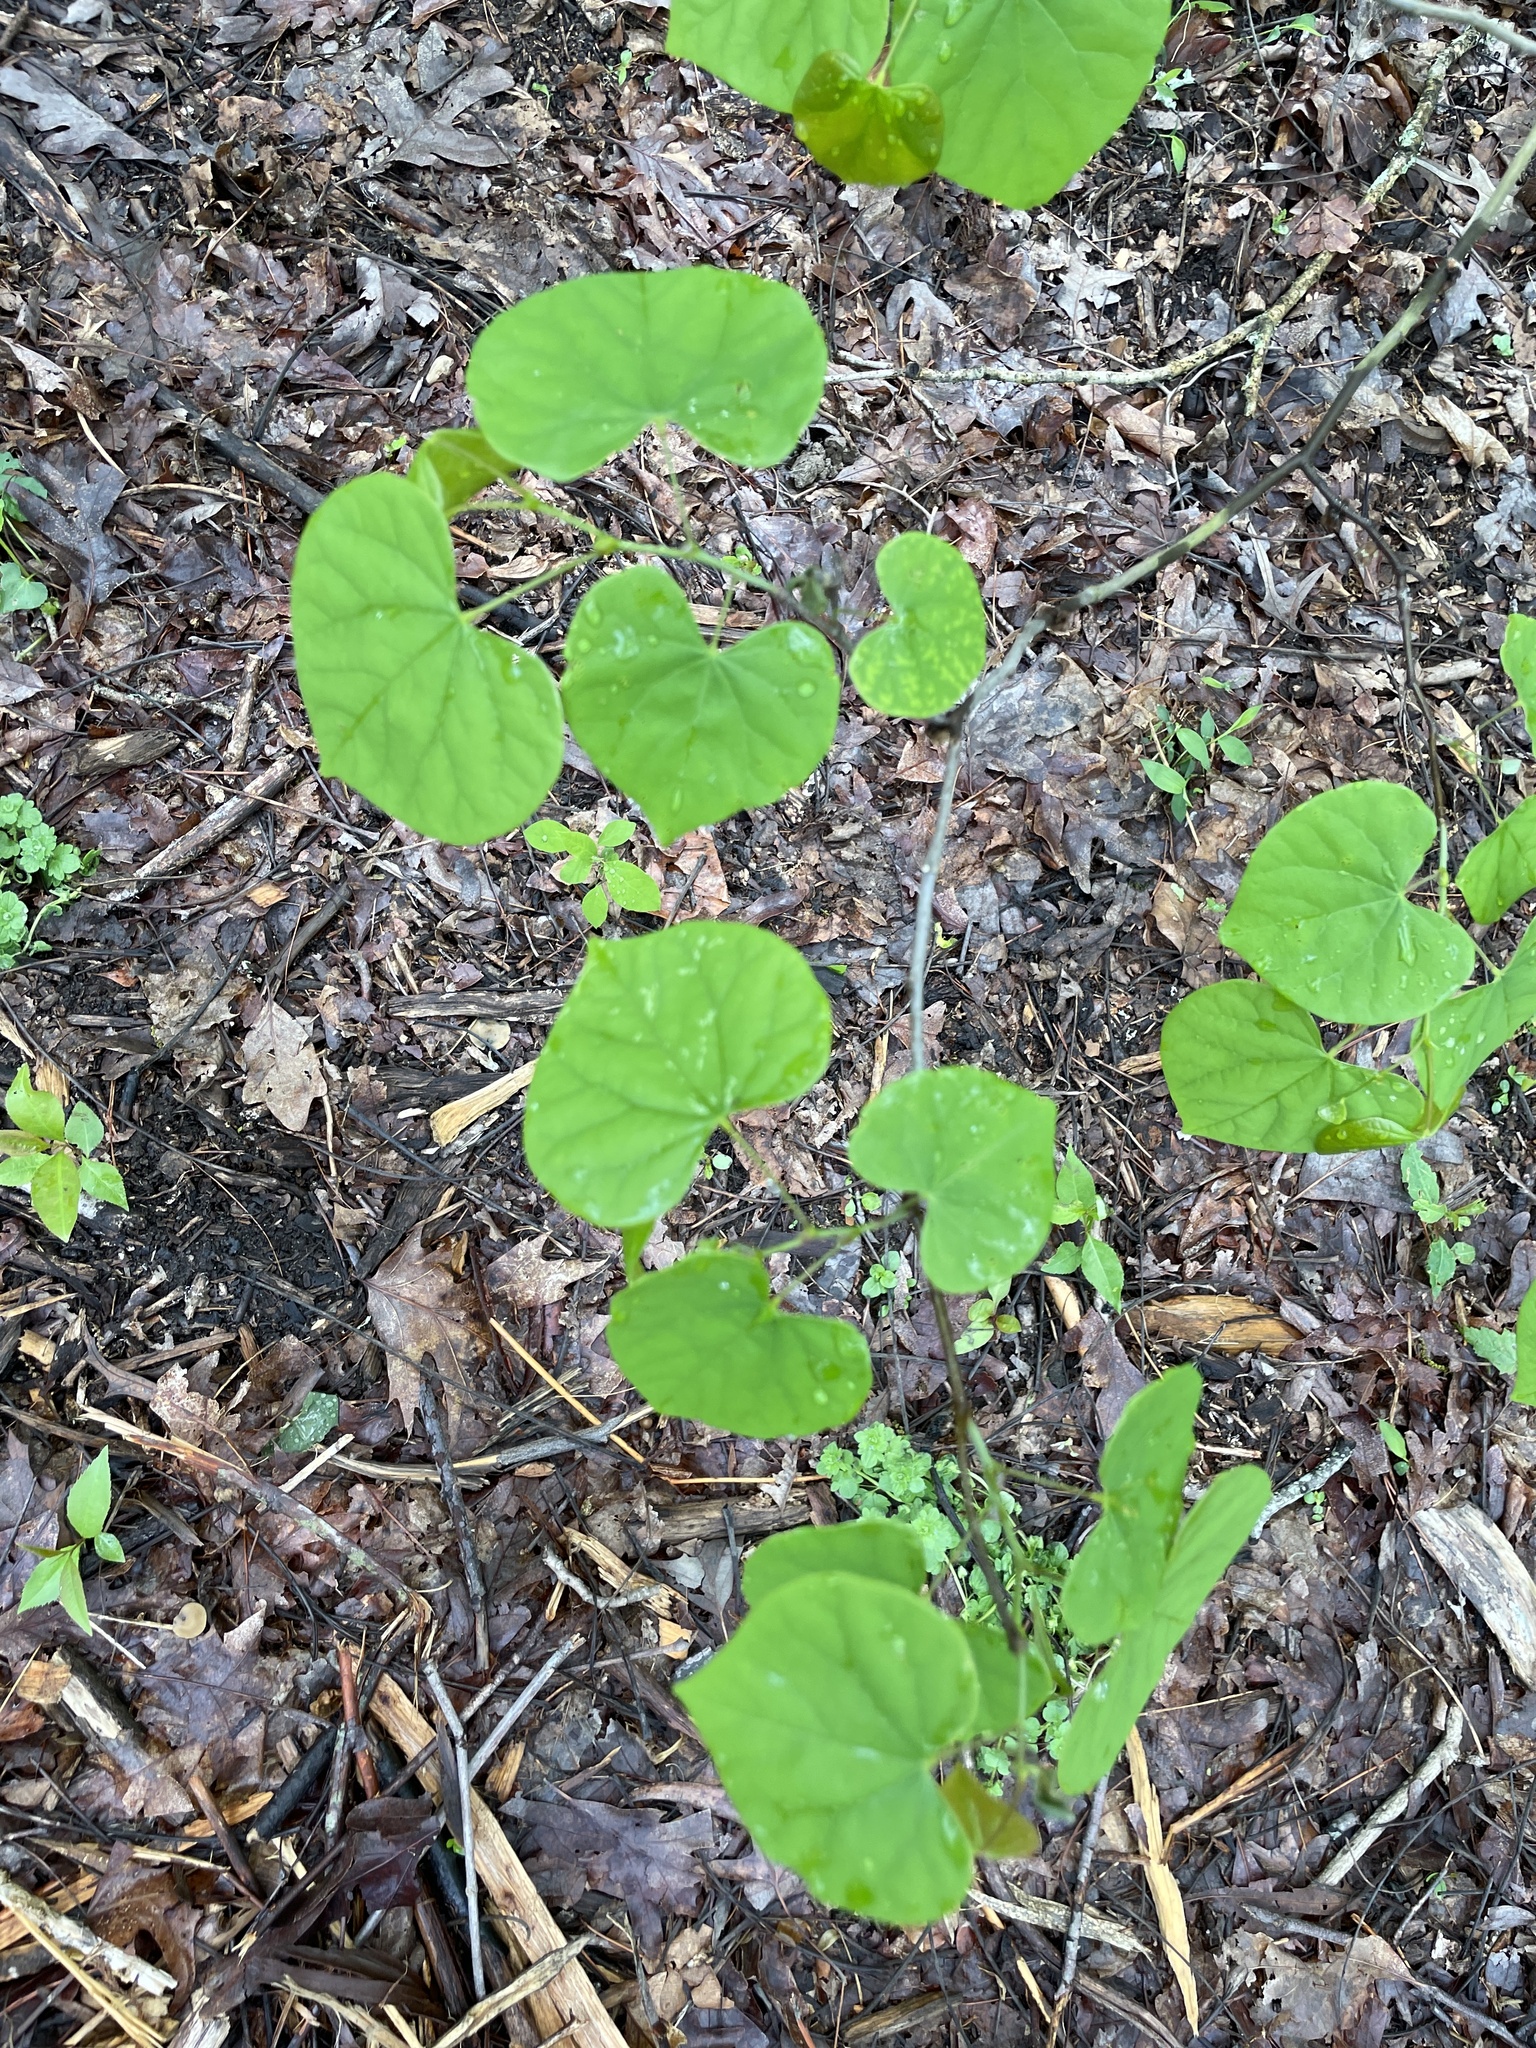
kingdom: Plantae
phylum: Tracheophyta
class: Magnoliopsida
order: Fabales
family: Fabaceae
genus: Cercis
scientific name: Cercis canadensis
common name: Eastern redbud
